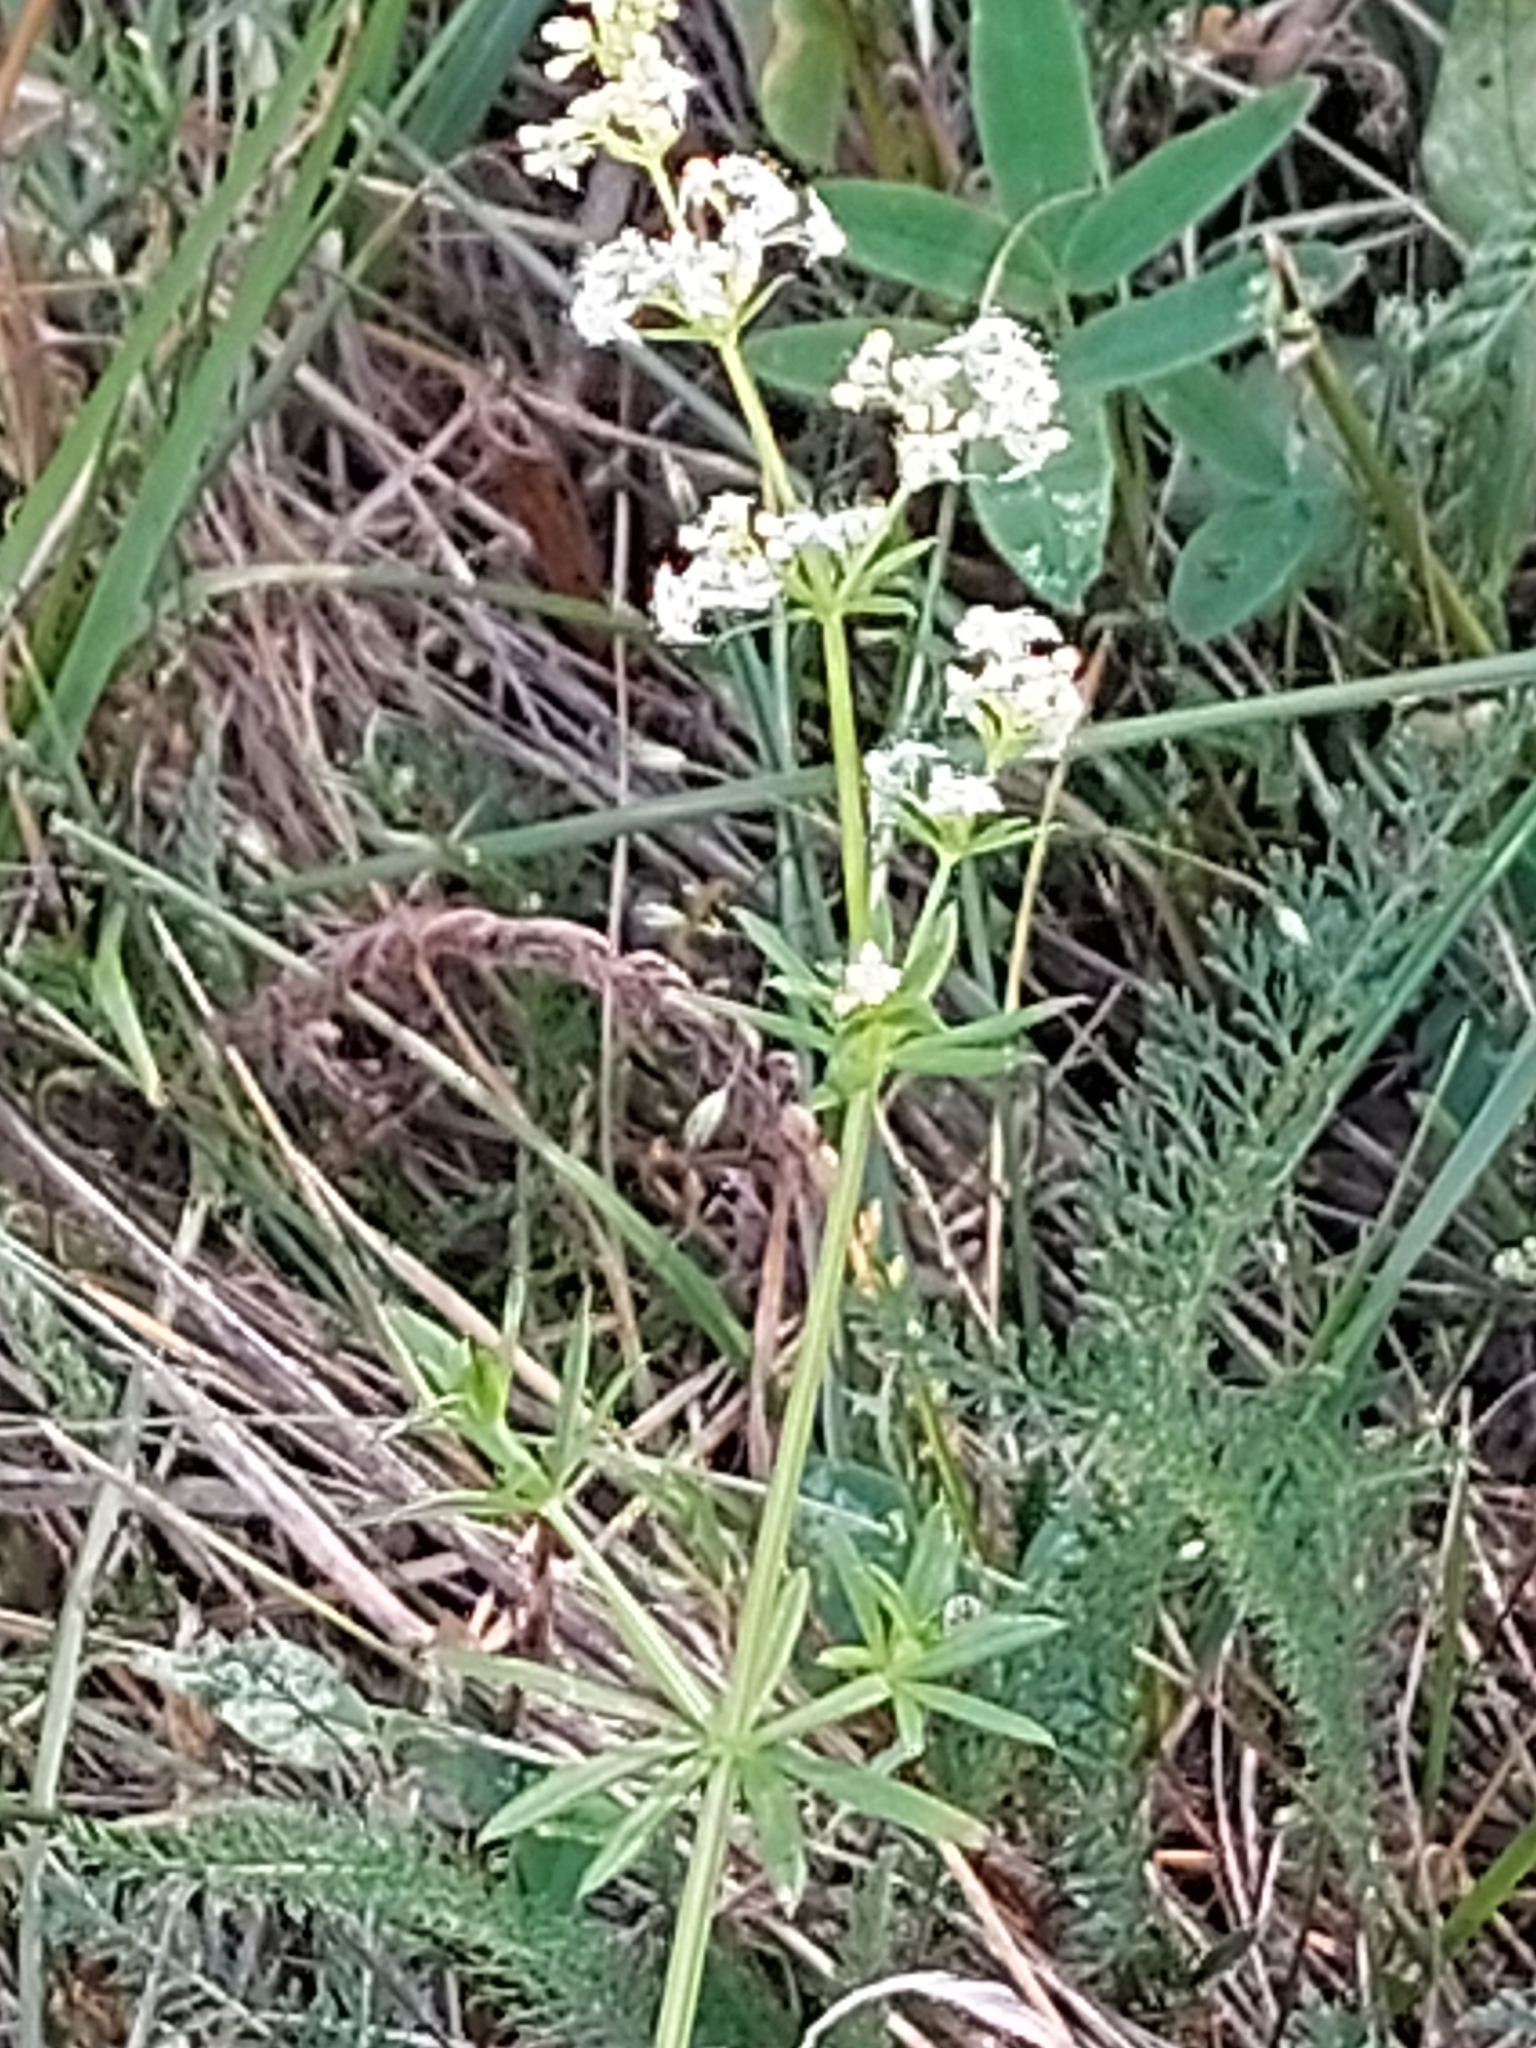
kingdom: Plantae
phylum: Tracheophyta
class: Magnoliopsida
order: Gentianales
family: Rubiaceae
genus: Galium
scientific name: Galium mollugo
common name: Hedge bedstraw
